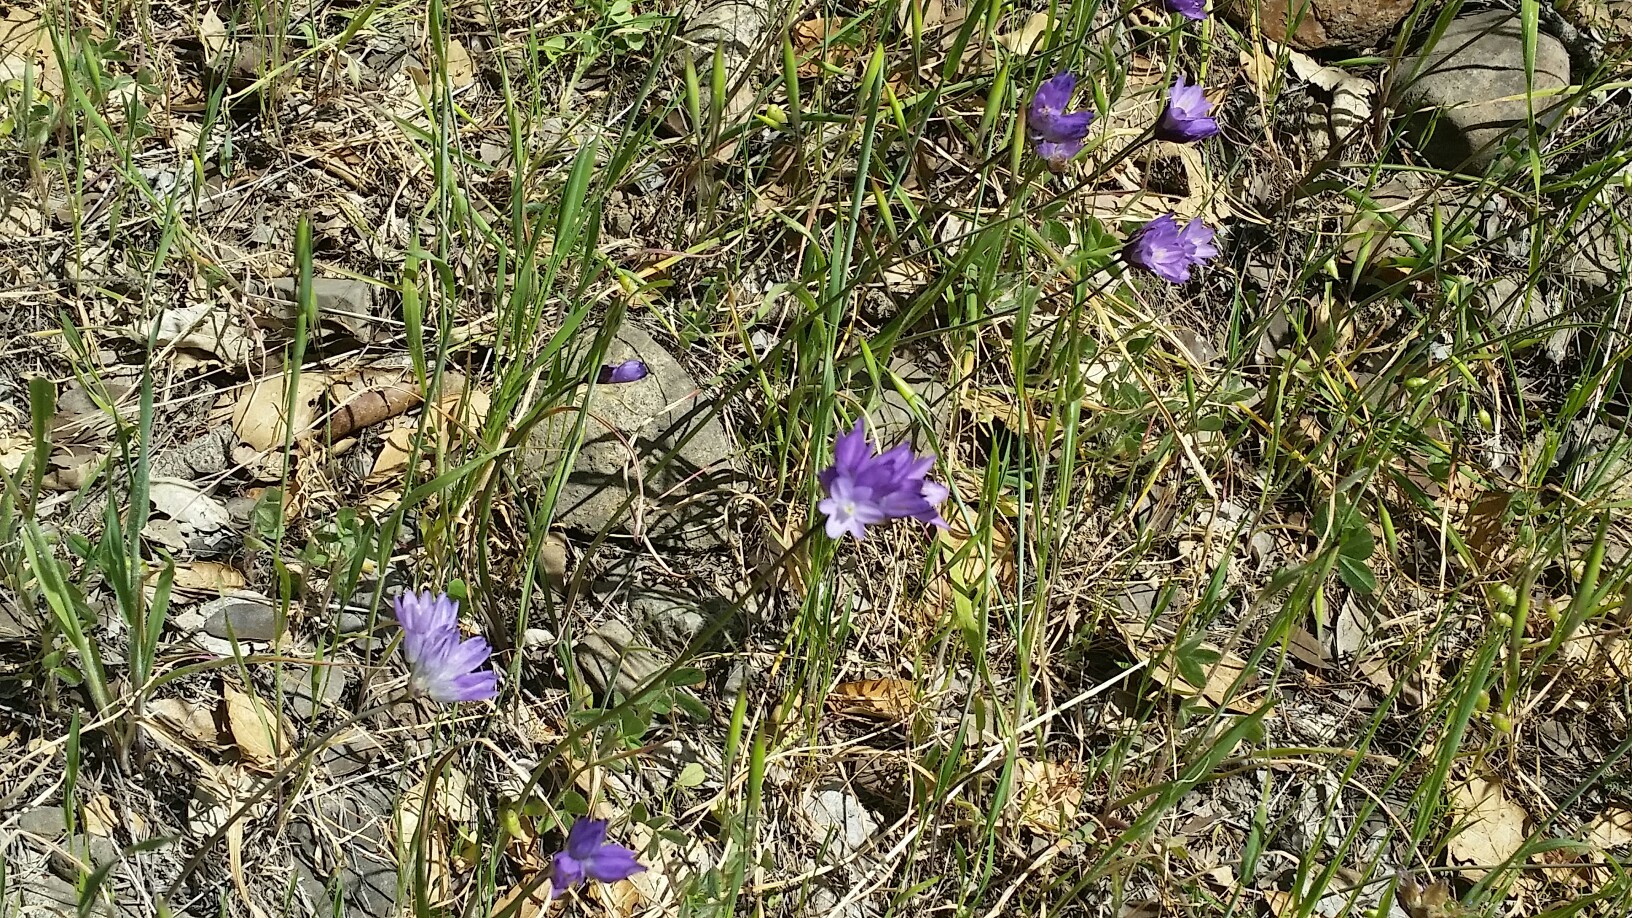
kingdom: Plantae
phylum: Tracheophyta
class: Liliopsida
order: Asparagales
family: Asparagaceae
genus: Dipterostemon
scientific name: Dipterostemon capitatus
